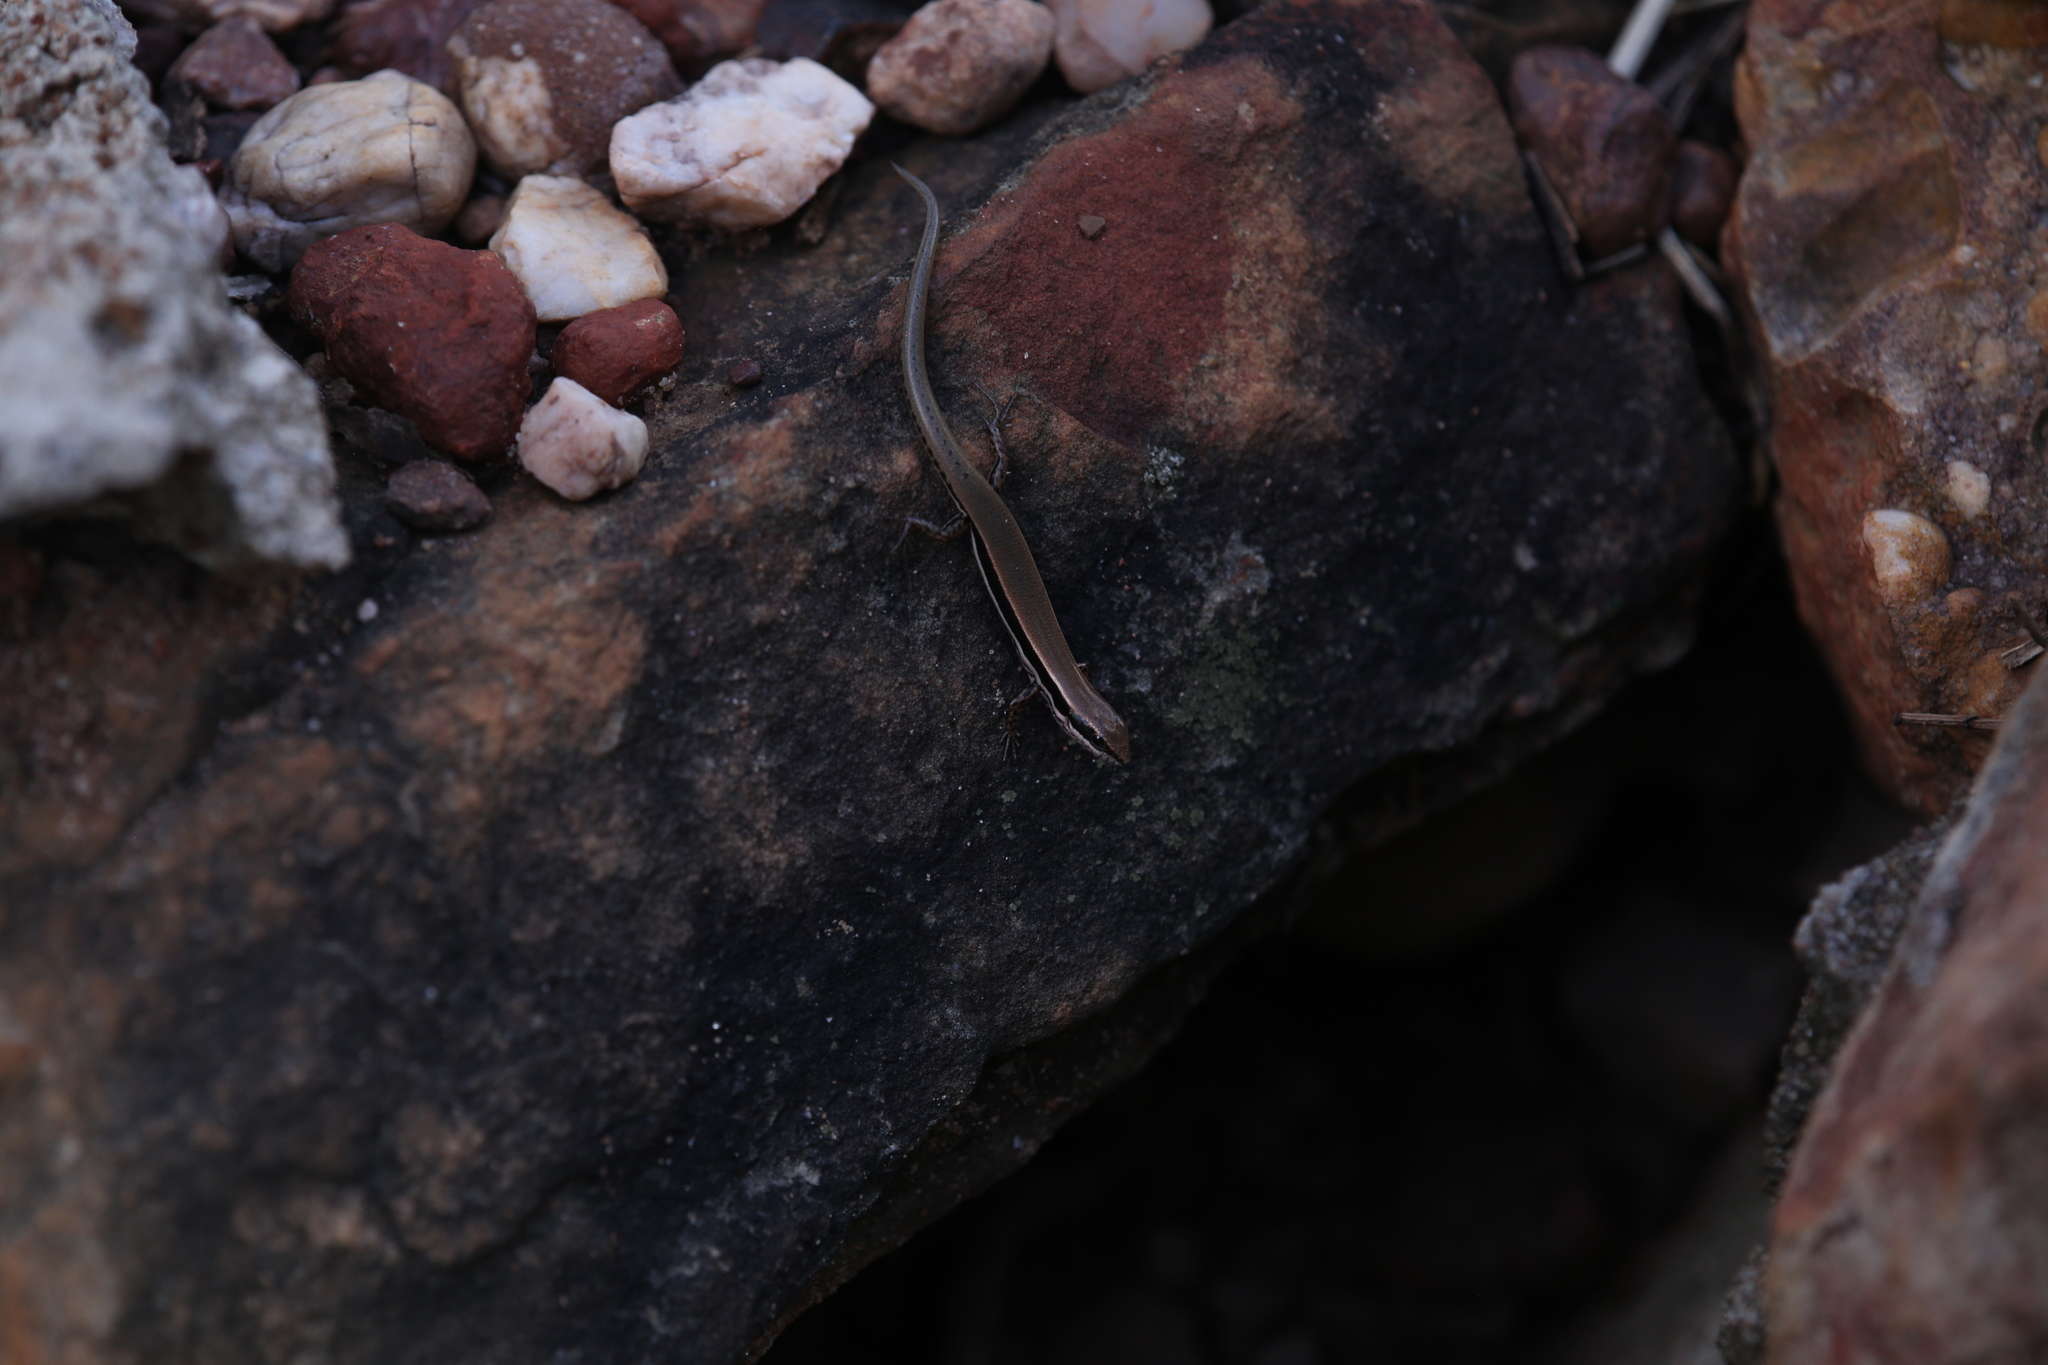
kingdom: Animalia
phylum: Chordata
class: Squamata
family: Scincidae
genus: Notoscincus
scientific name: Notoscincus ornatus
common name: Ornate soil-crevice skink
